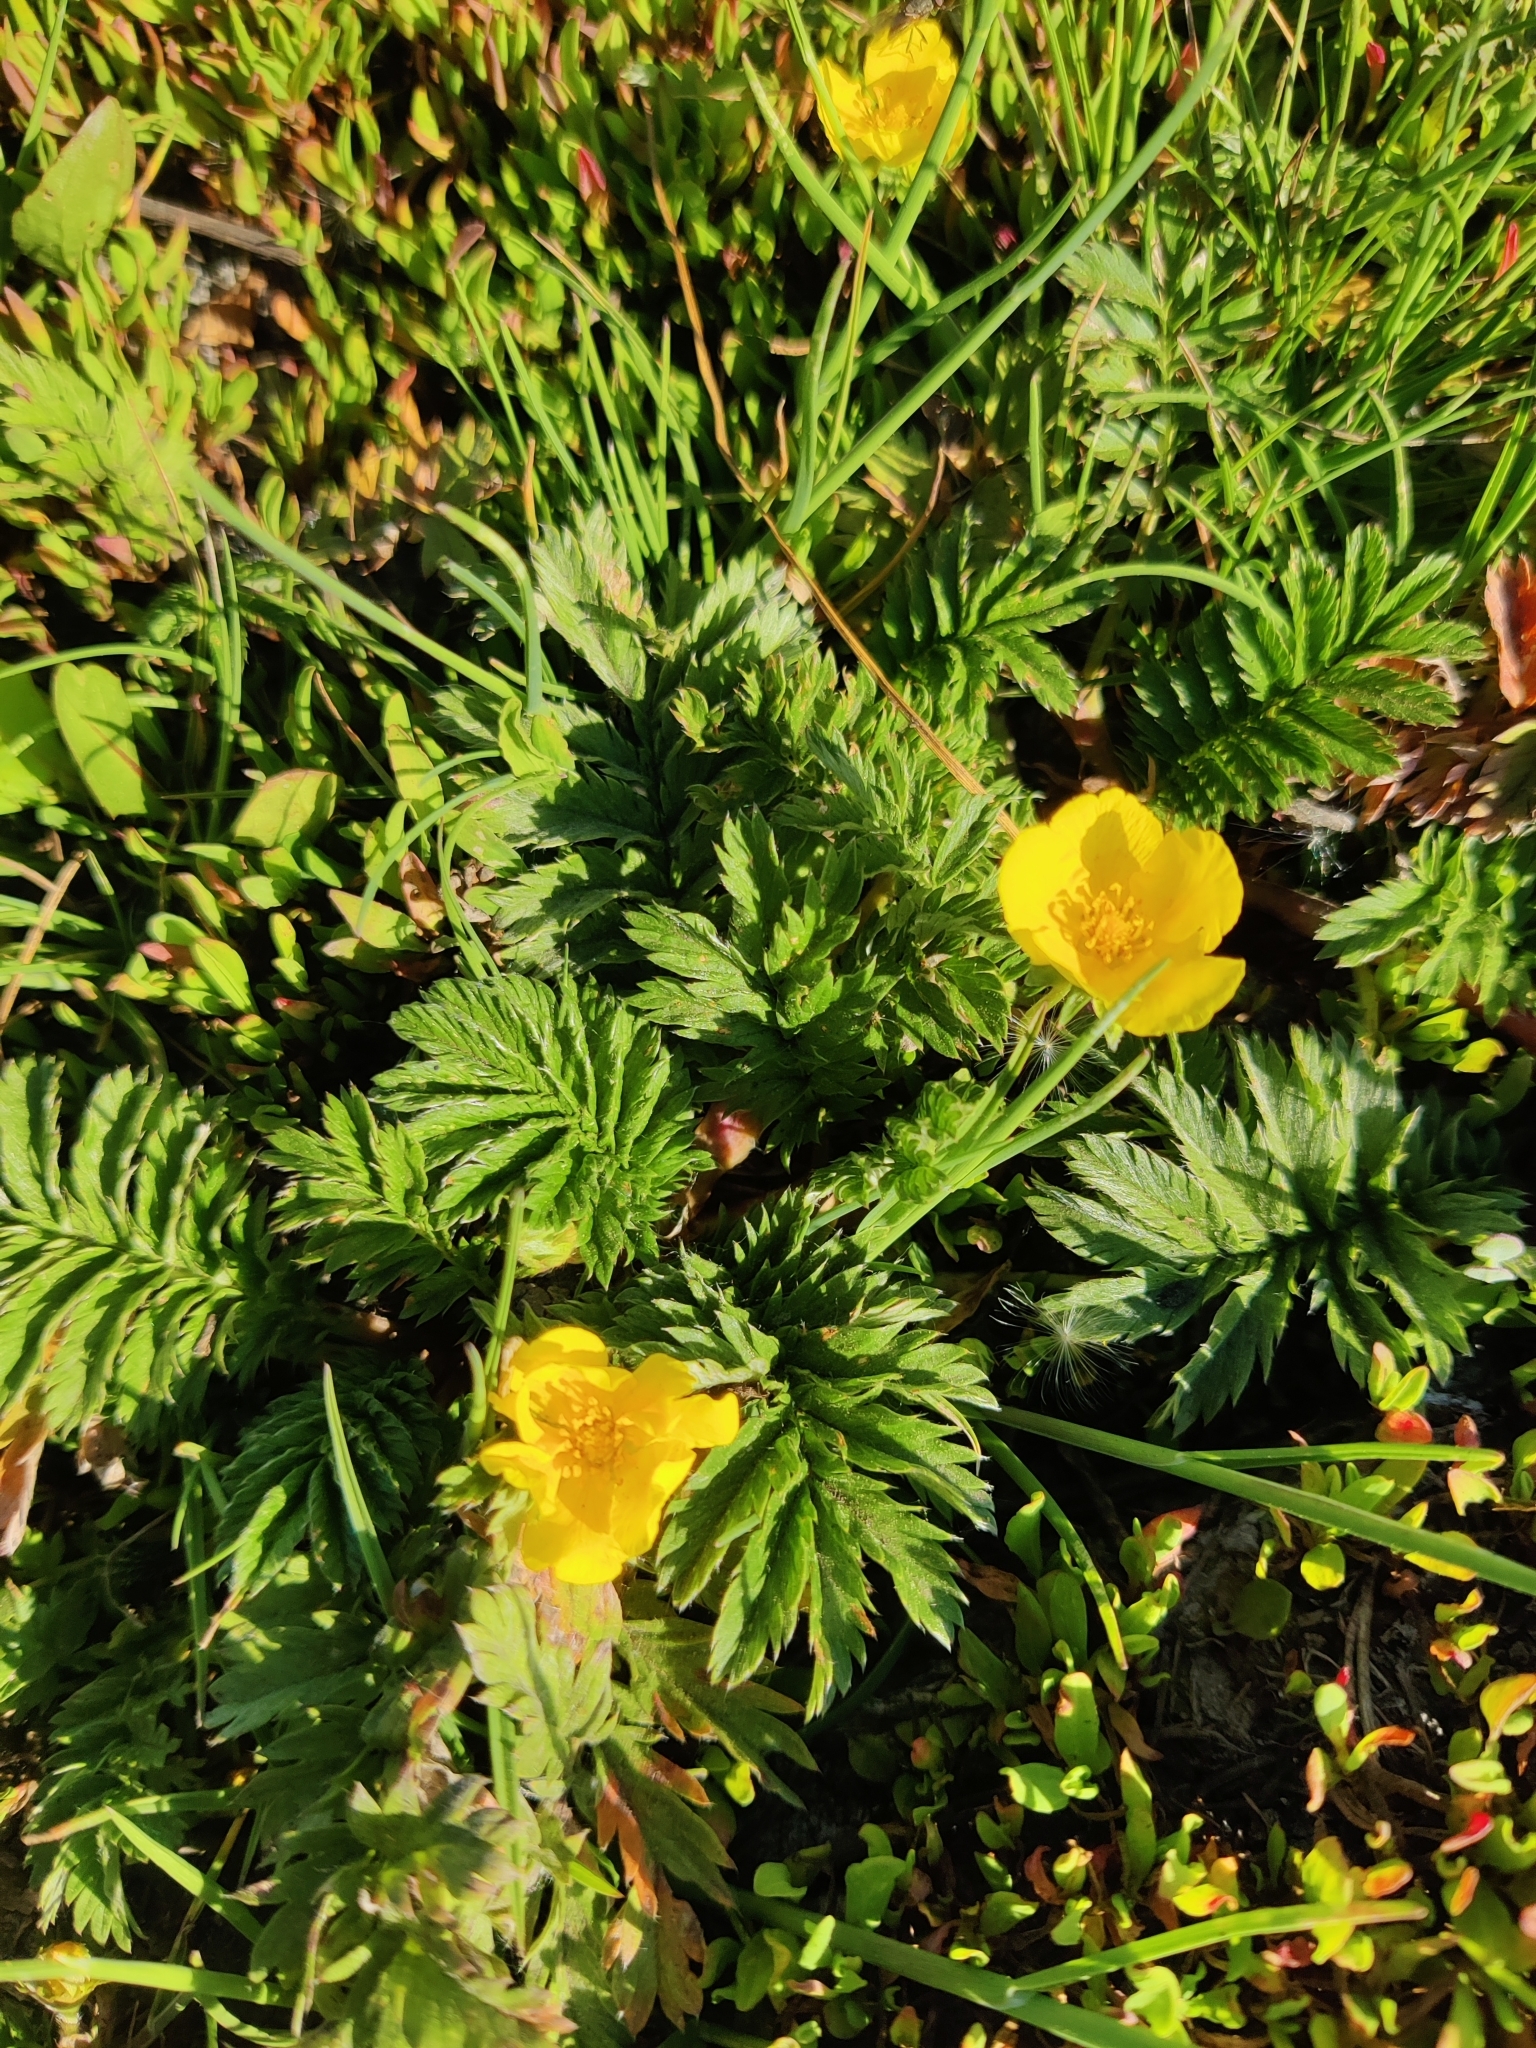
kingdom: Plantae
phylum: Tracheophyta
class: Magnoliopsida
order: Rosales
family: Rosaceae
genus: Argentina
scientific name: Argentina anserina
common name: Common silverweed
